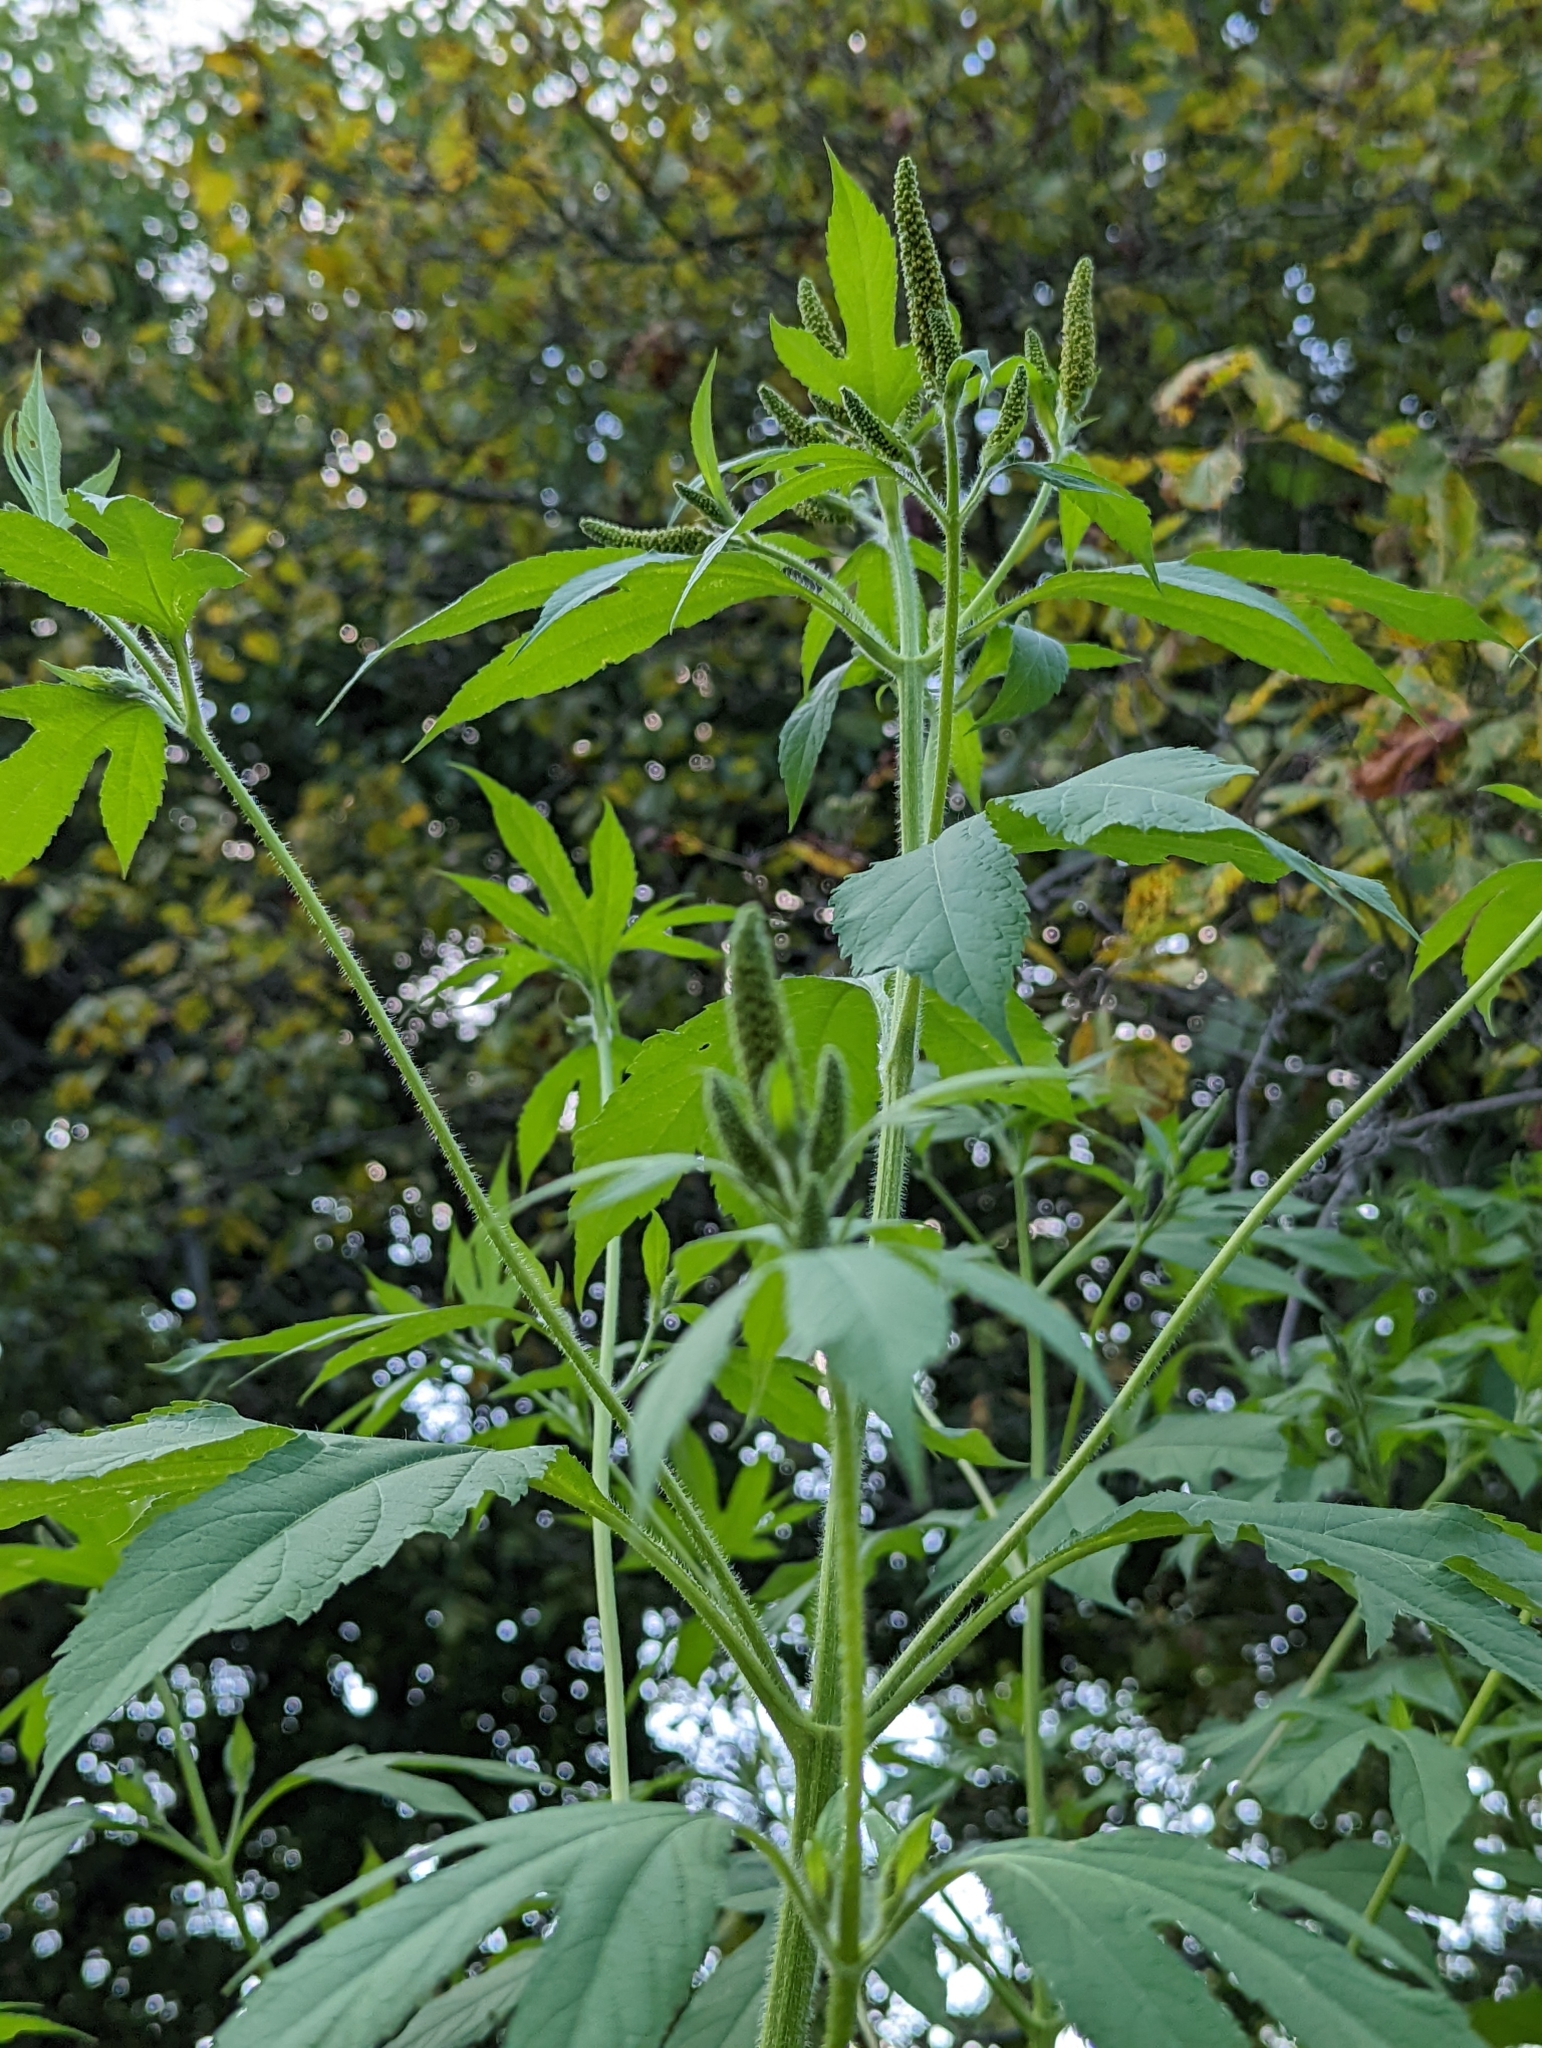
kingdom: Plantae
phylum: Tracheophyta
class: Magnoliopsida
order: Asterales
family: Asteraceae
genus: Ambrosia
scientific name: Ambrosia trifida
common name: Giant ragweed
